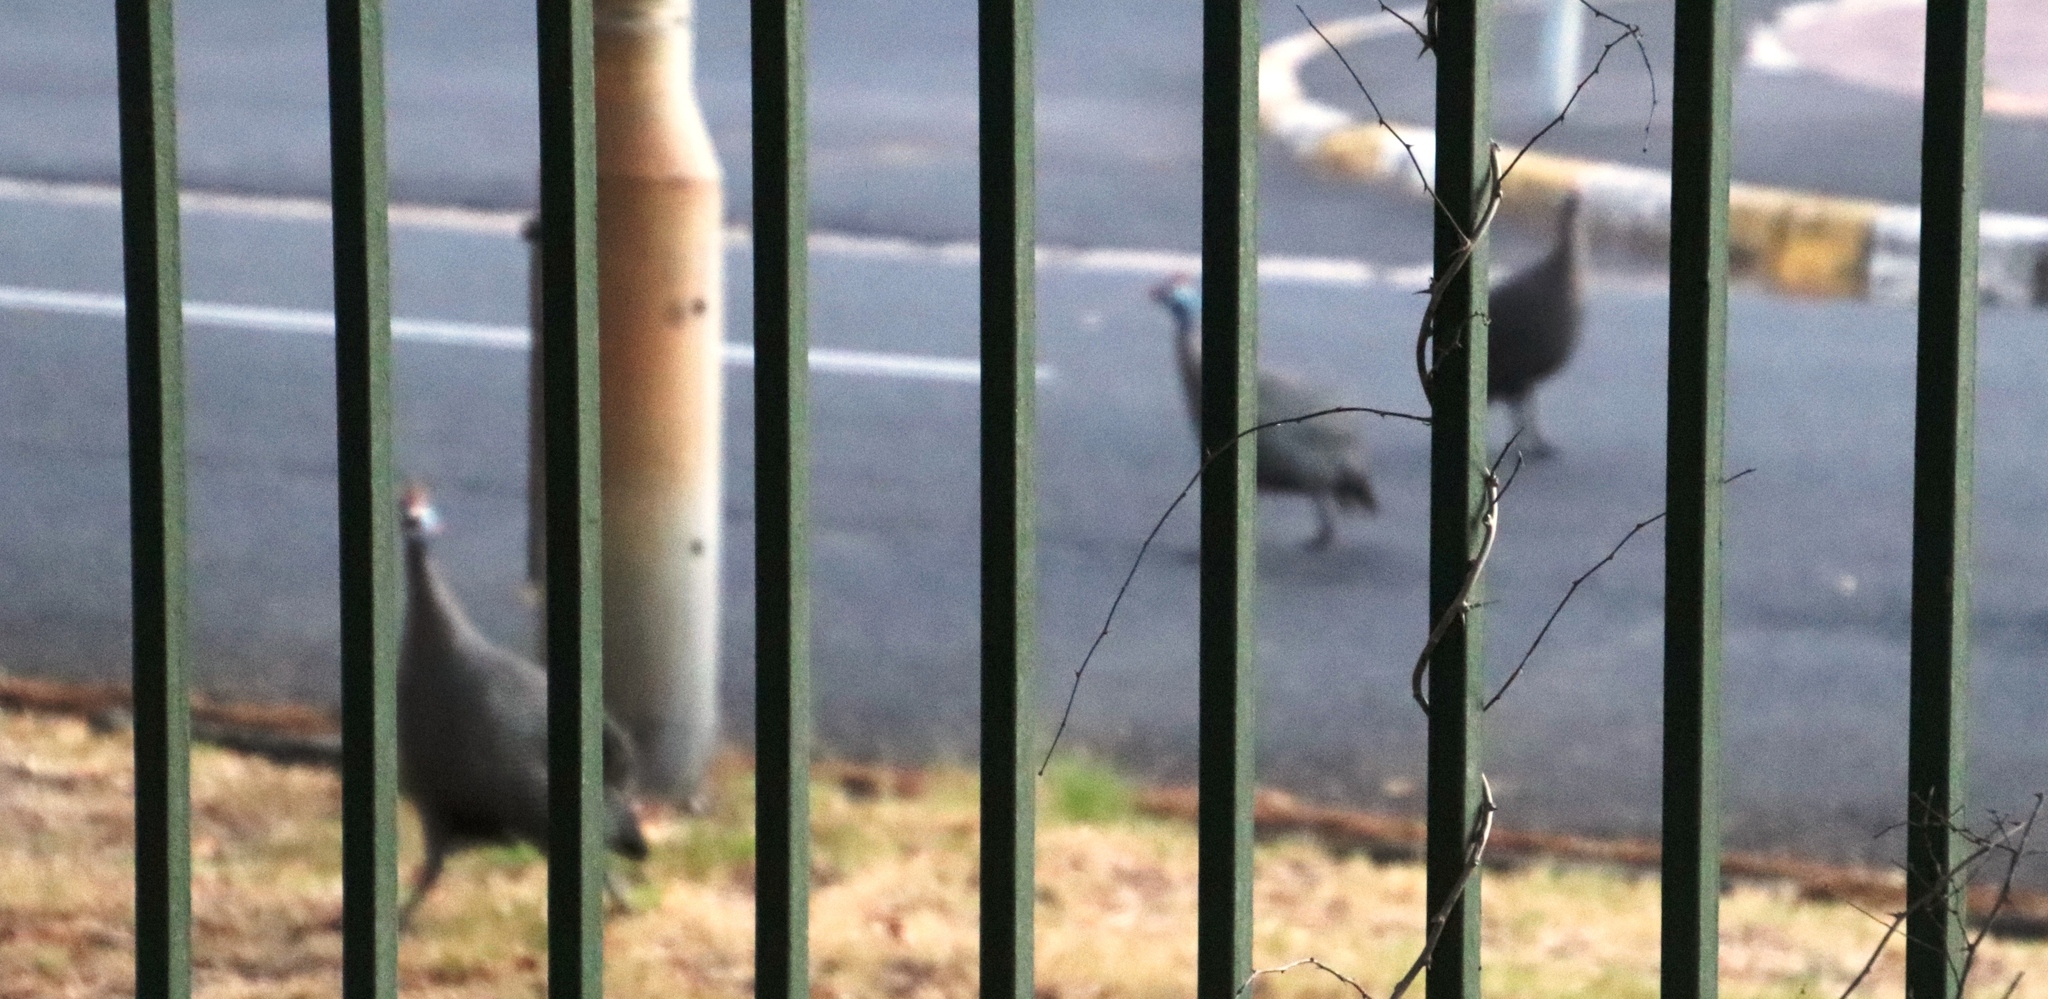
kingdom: Animalia
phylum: Chordata
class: Aves
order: Galliformes
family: Numididae
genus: Numida
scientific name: Numida meleagris
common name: Helmeted guineafowl
